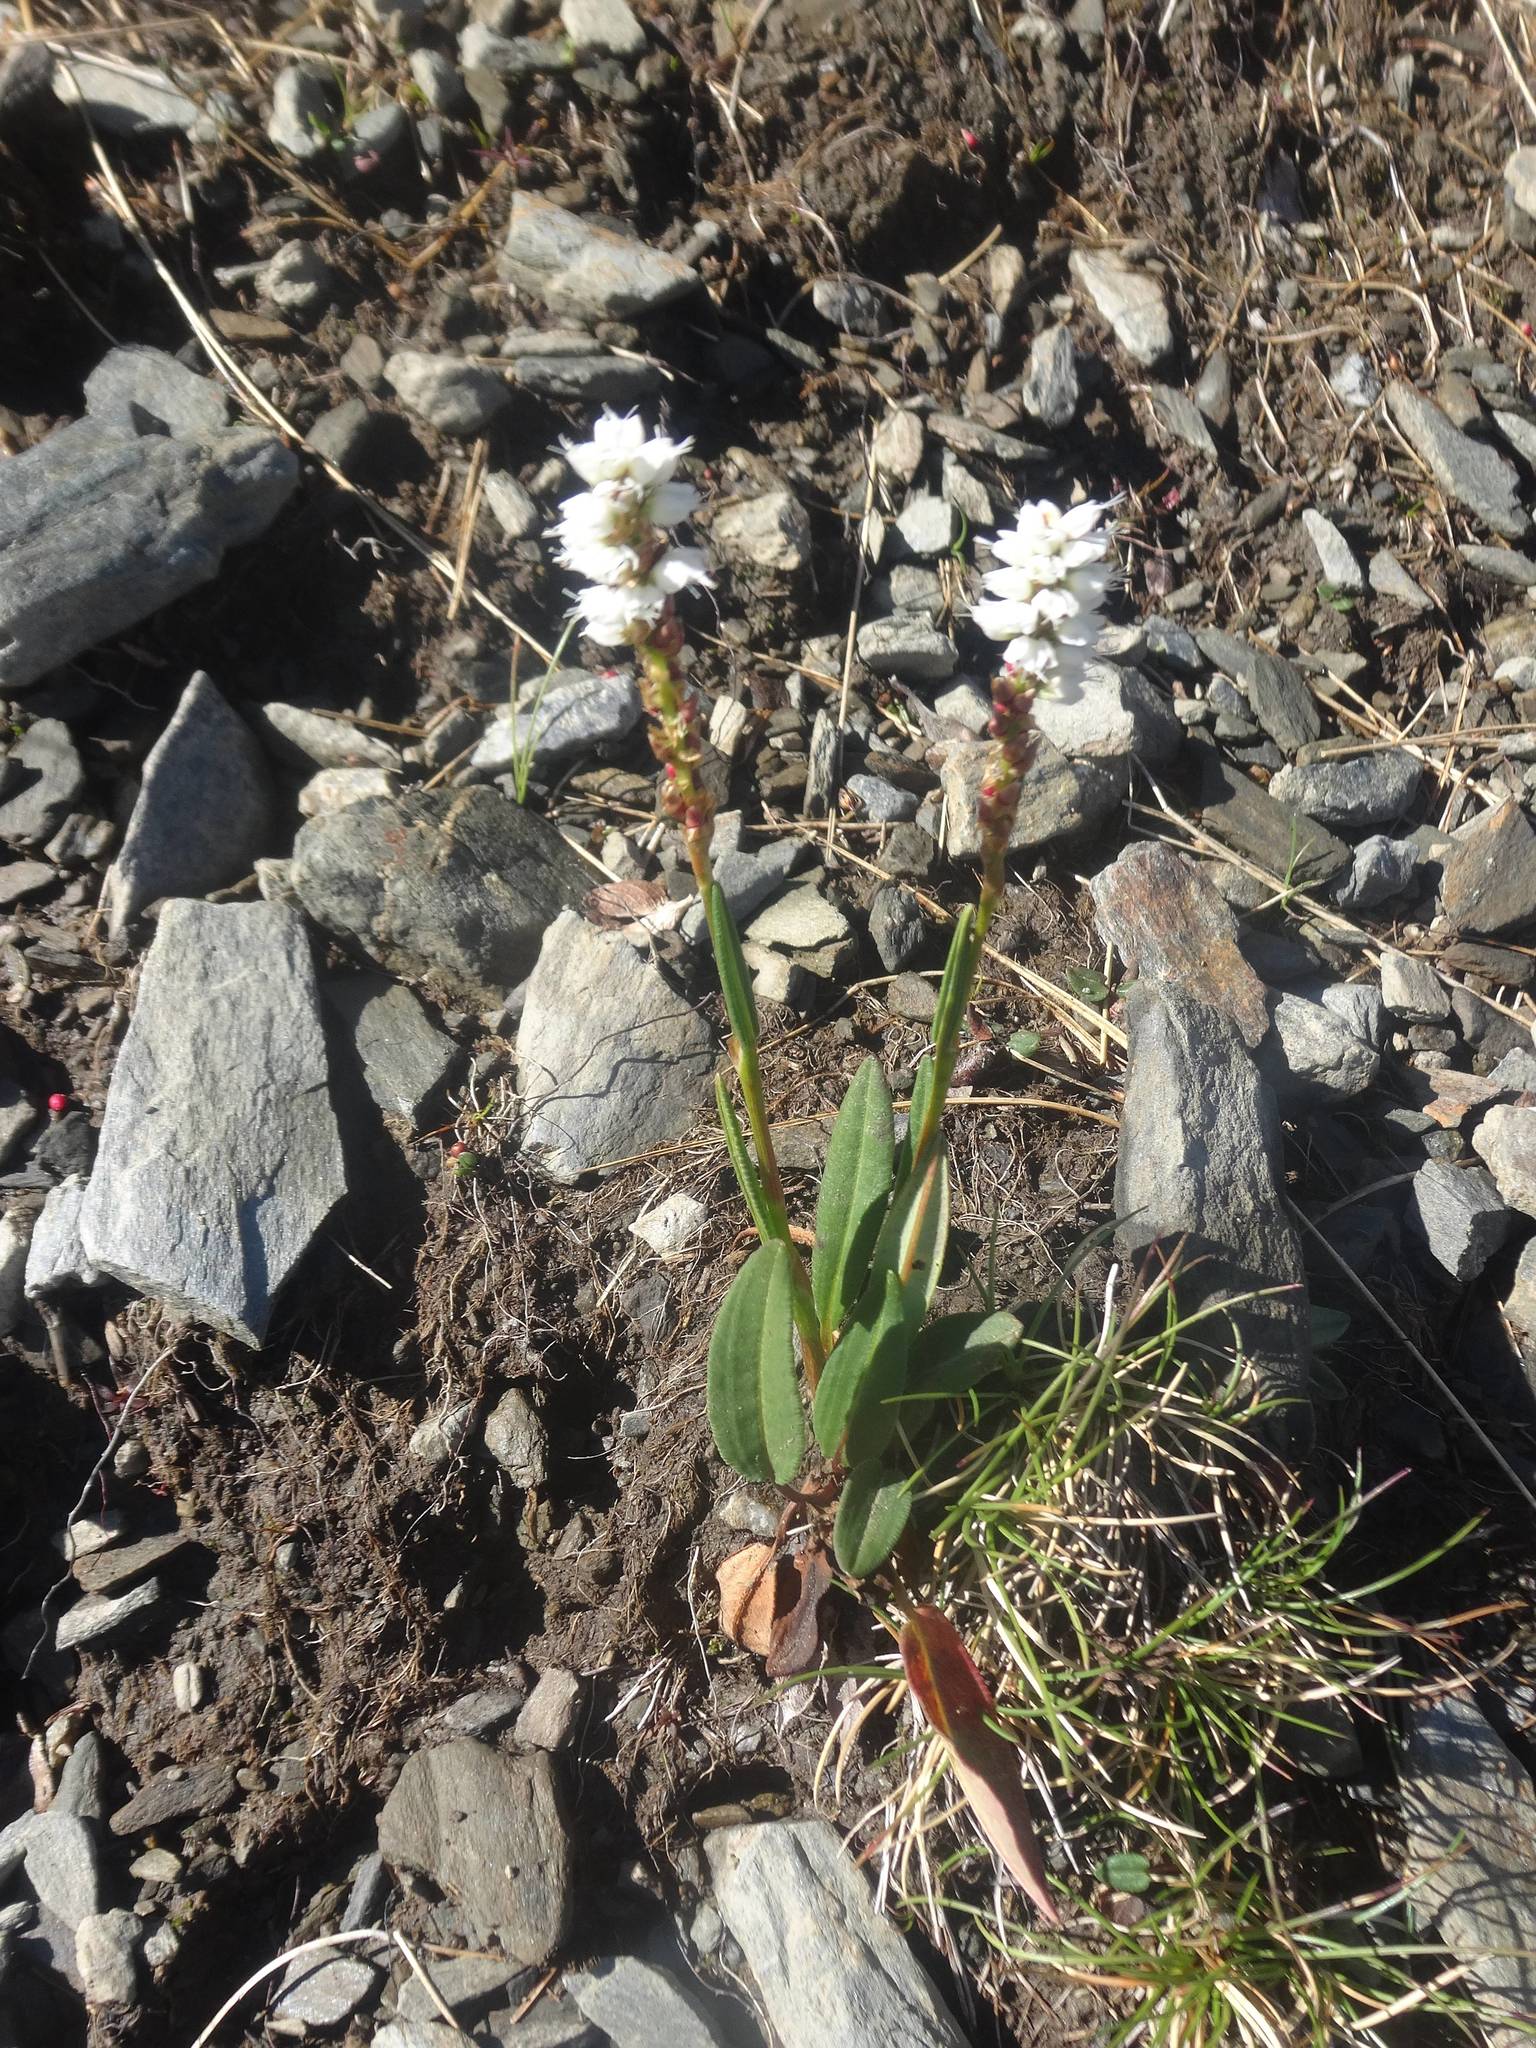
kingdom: Plantae
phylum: Tracheophyta
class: Magnoliopsida
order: Caryophyllales
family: Polygonaceae
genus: Bistorta
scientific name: Bistorta vivipara
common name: Alpine bistort
